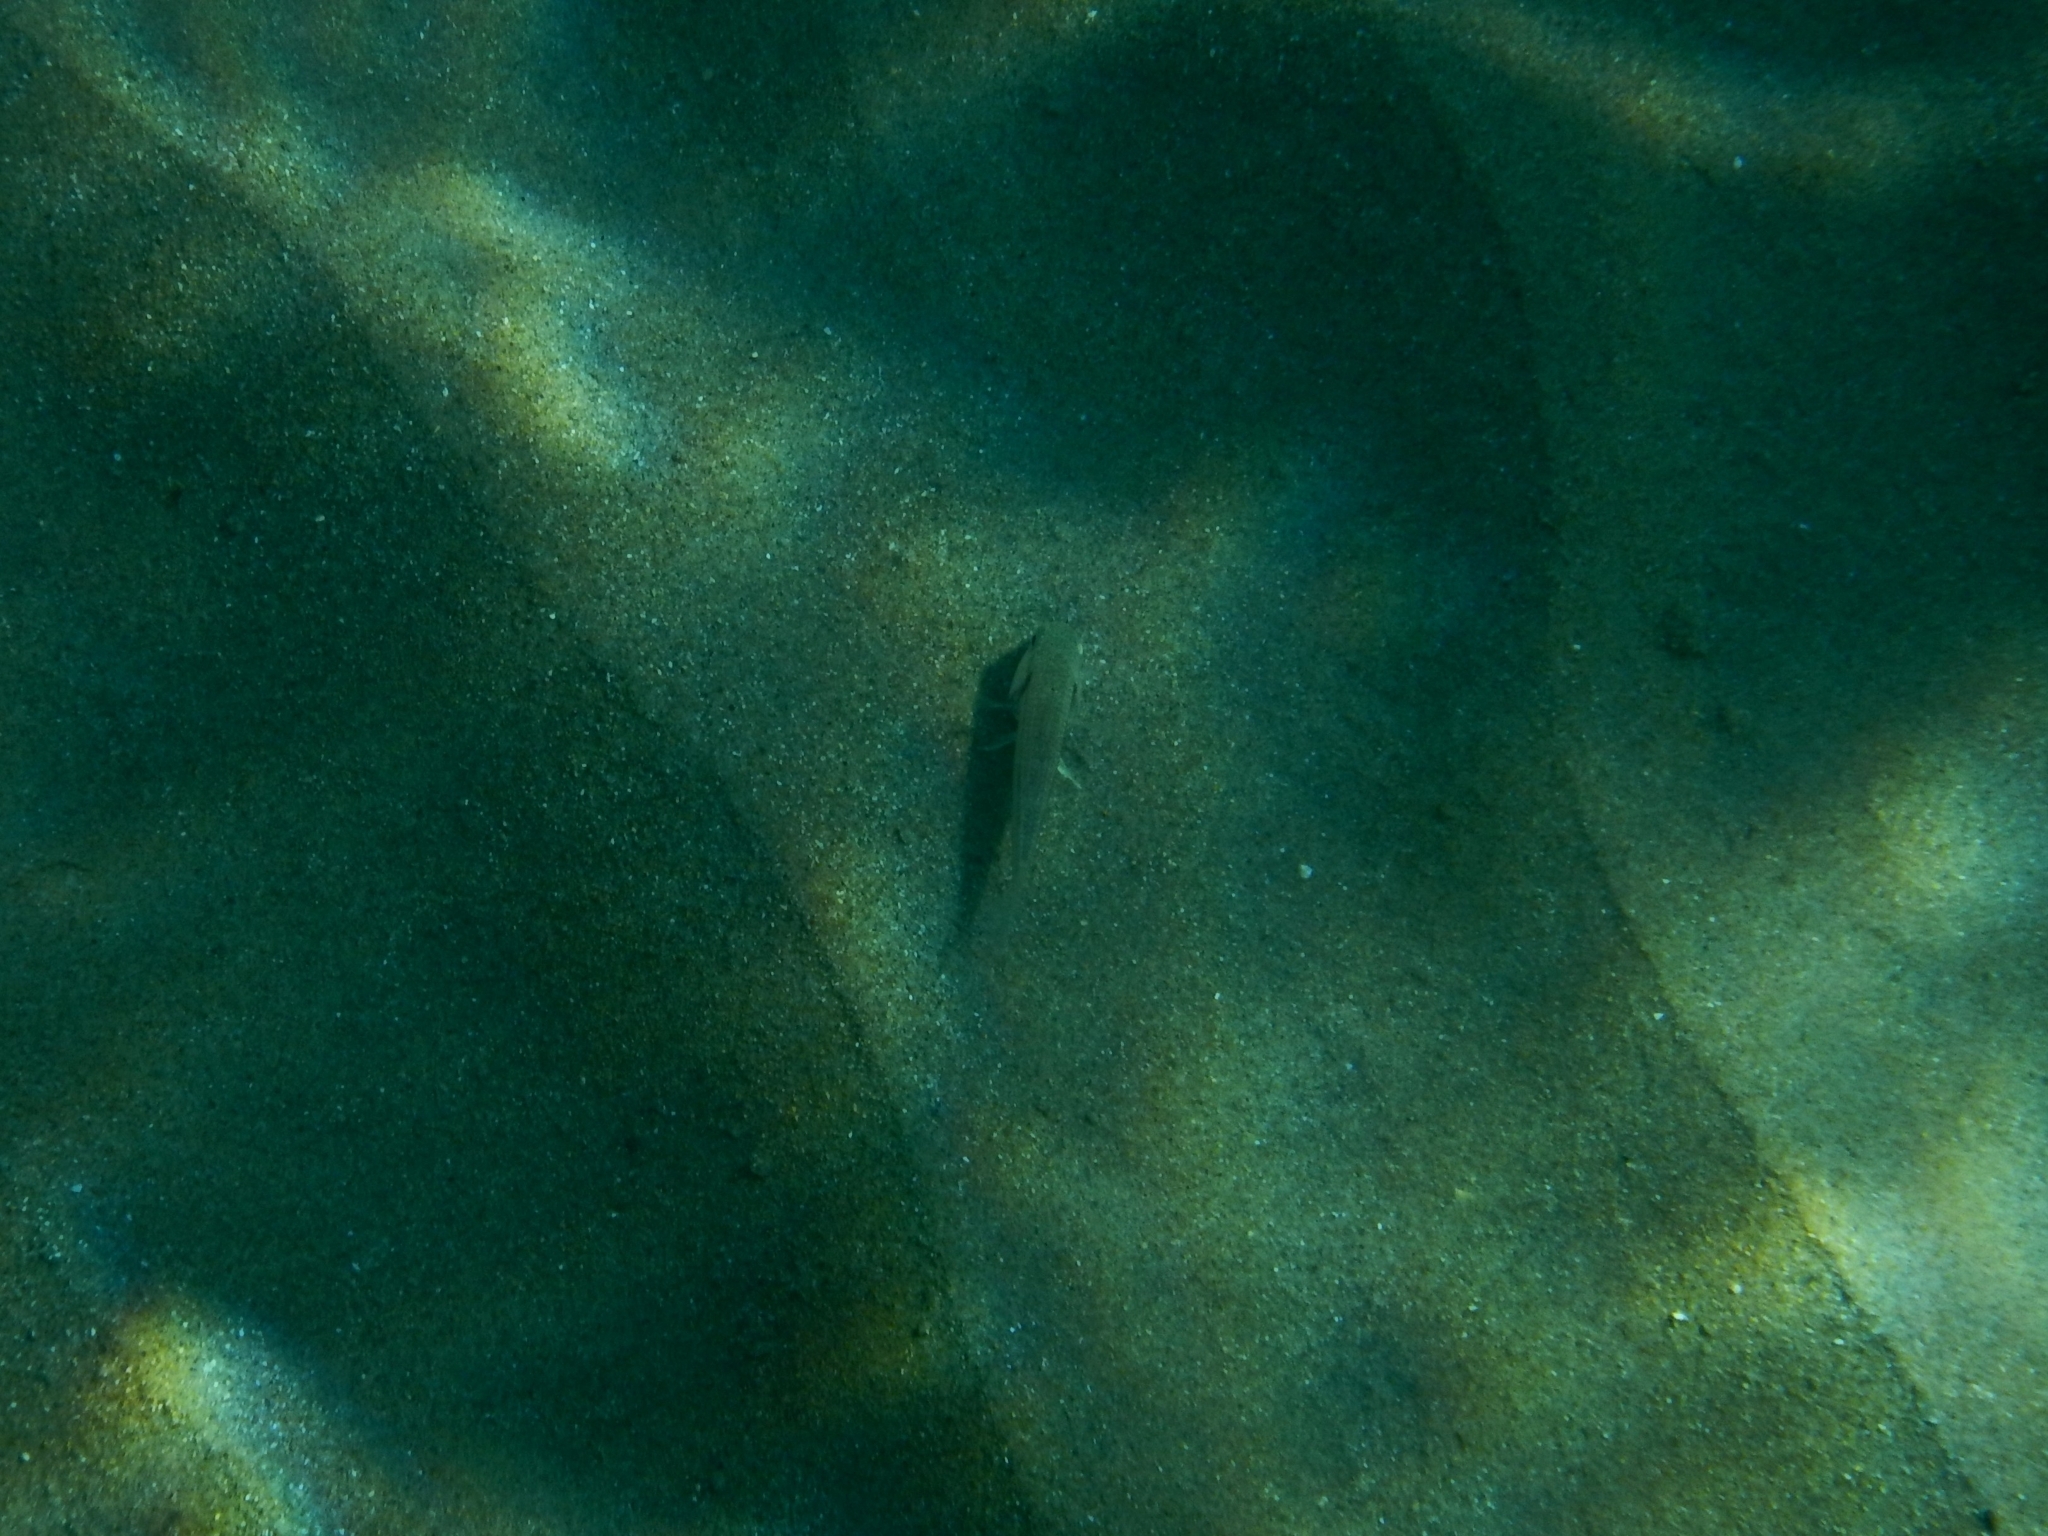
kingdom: Animalia
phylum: Chordata
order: Perciformes
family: Mullidae
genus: Mullus
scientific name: Mullus
